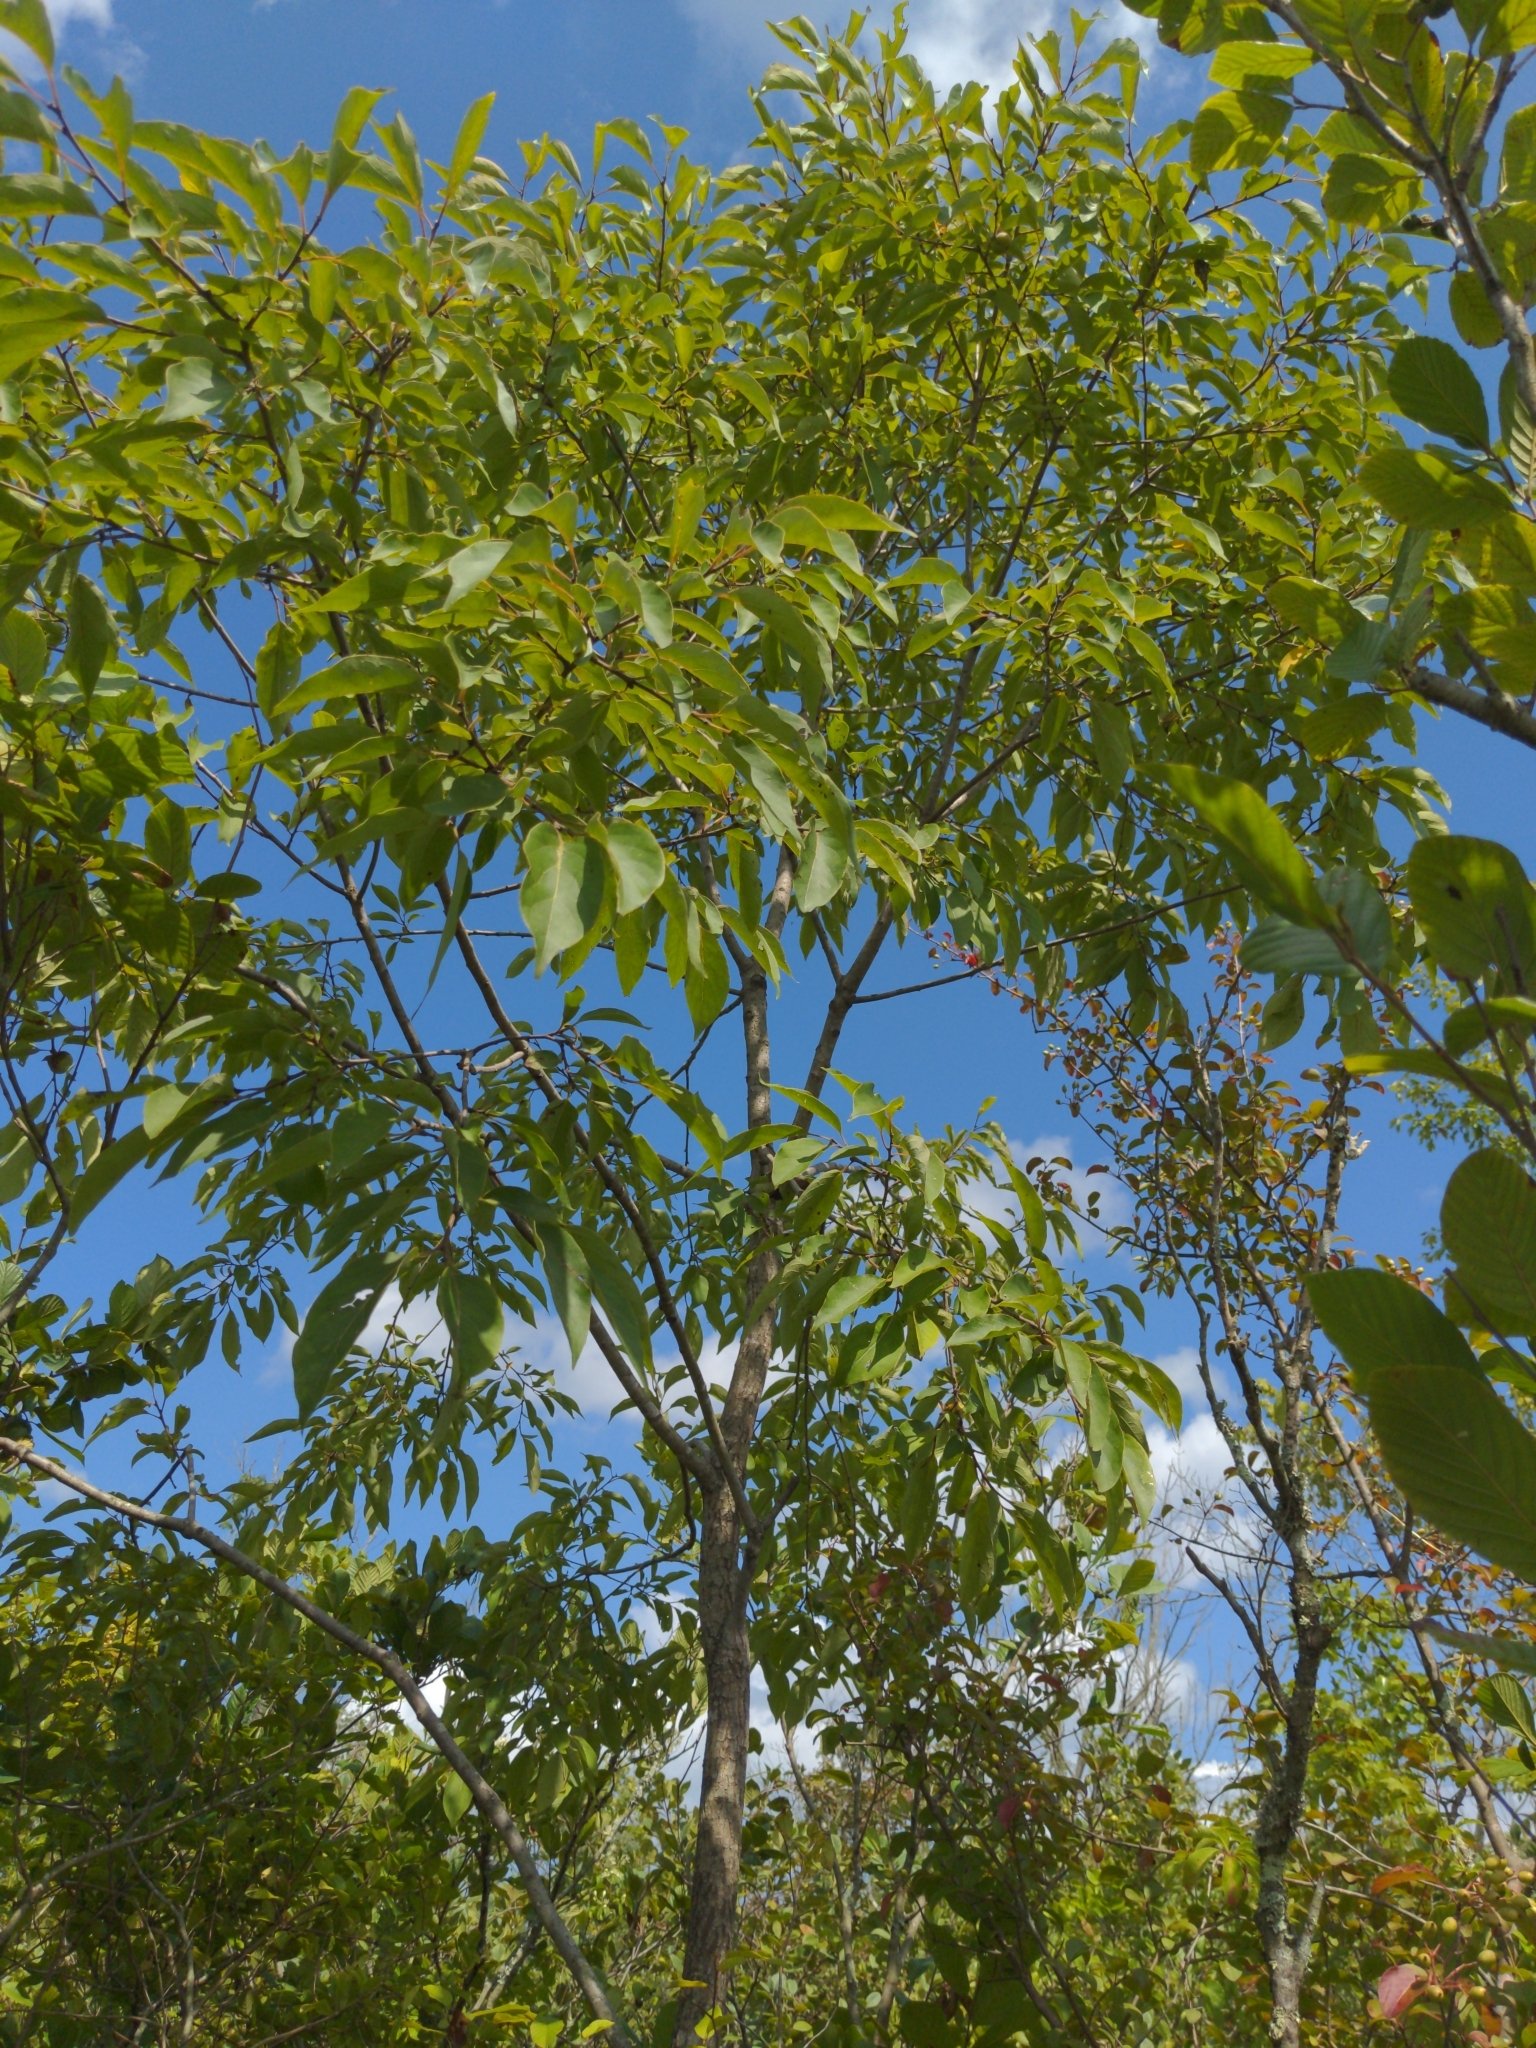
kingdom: Plantae
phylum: Tracheophyta
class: Magnoliopsida
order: Ericales
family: Ebenaceae
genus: Diospyros
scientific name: Diospyros virginiana
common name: Persimmon
